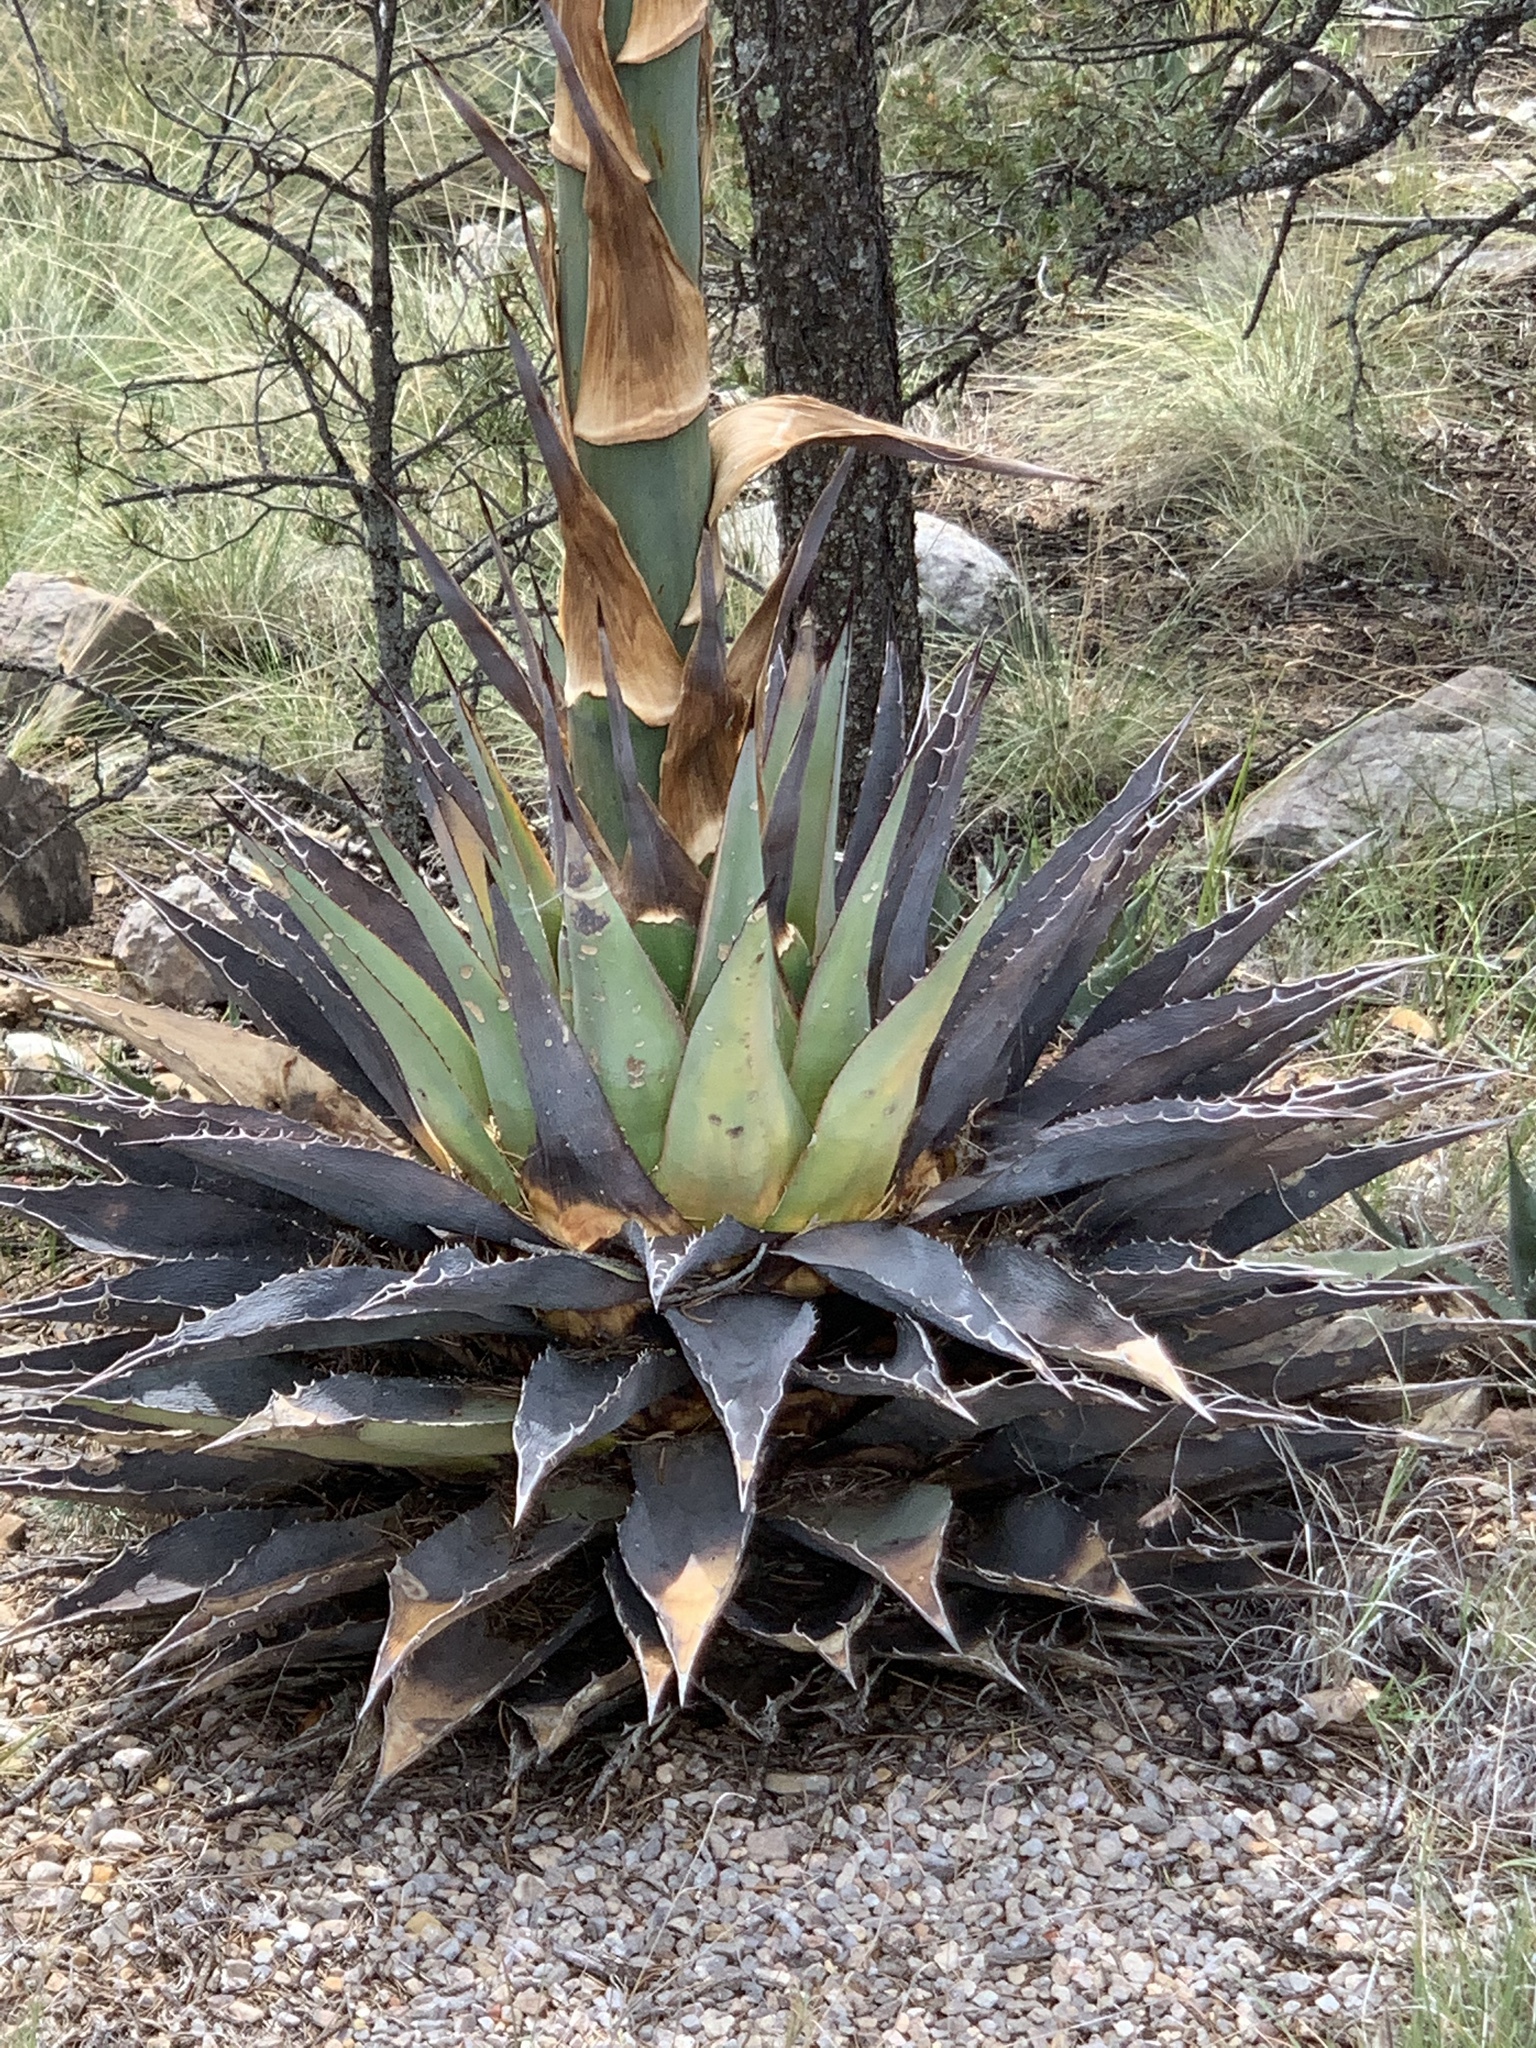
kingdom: Plantae
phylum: Tracheophyta
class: Liliopsida
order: Asparagales
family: Asparagaceae
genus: Agave
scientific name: Agave parryi
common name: Parry's agave
